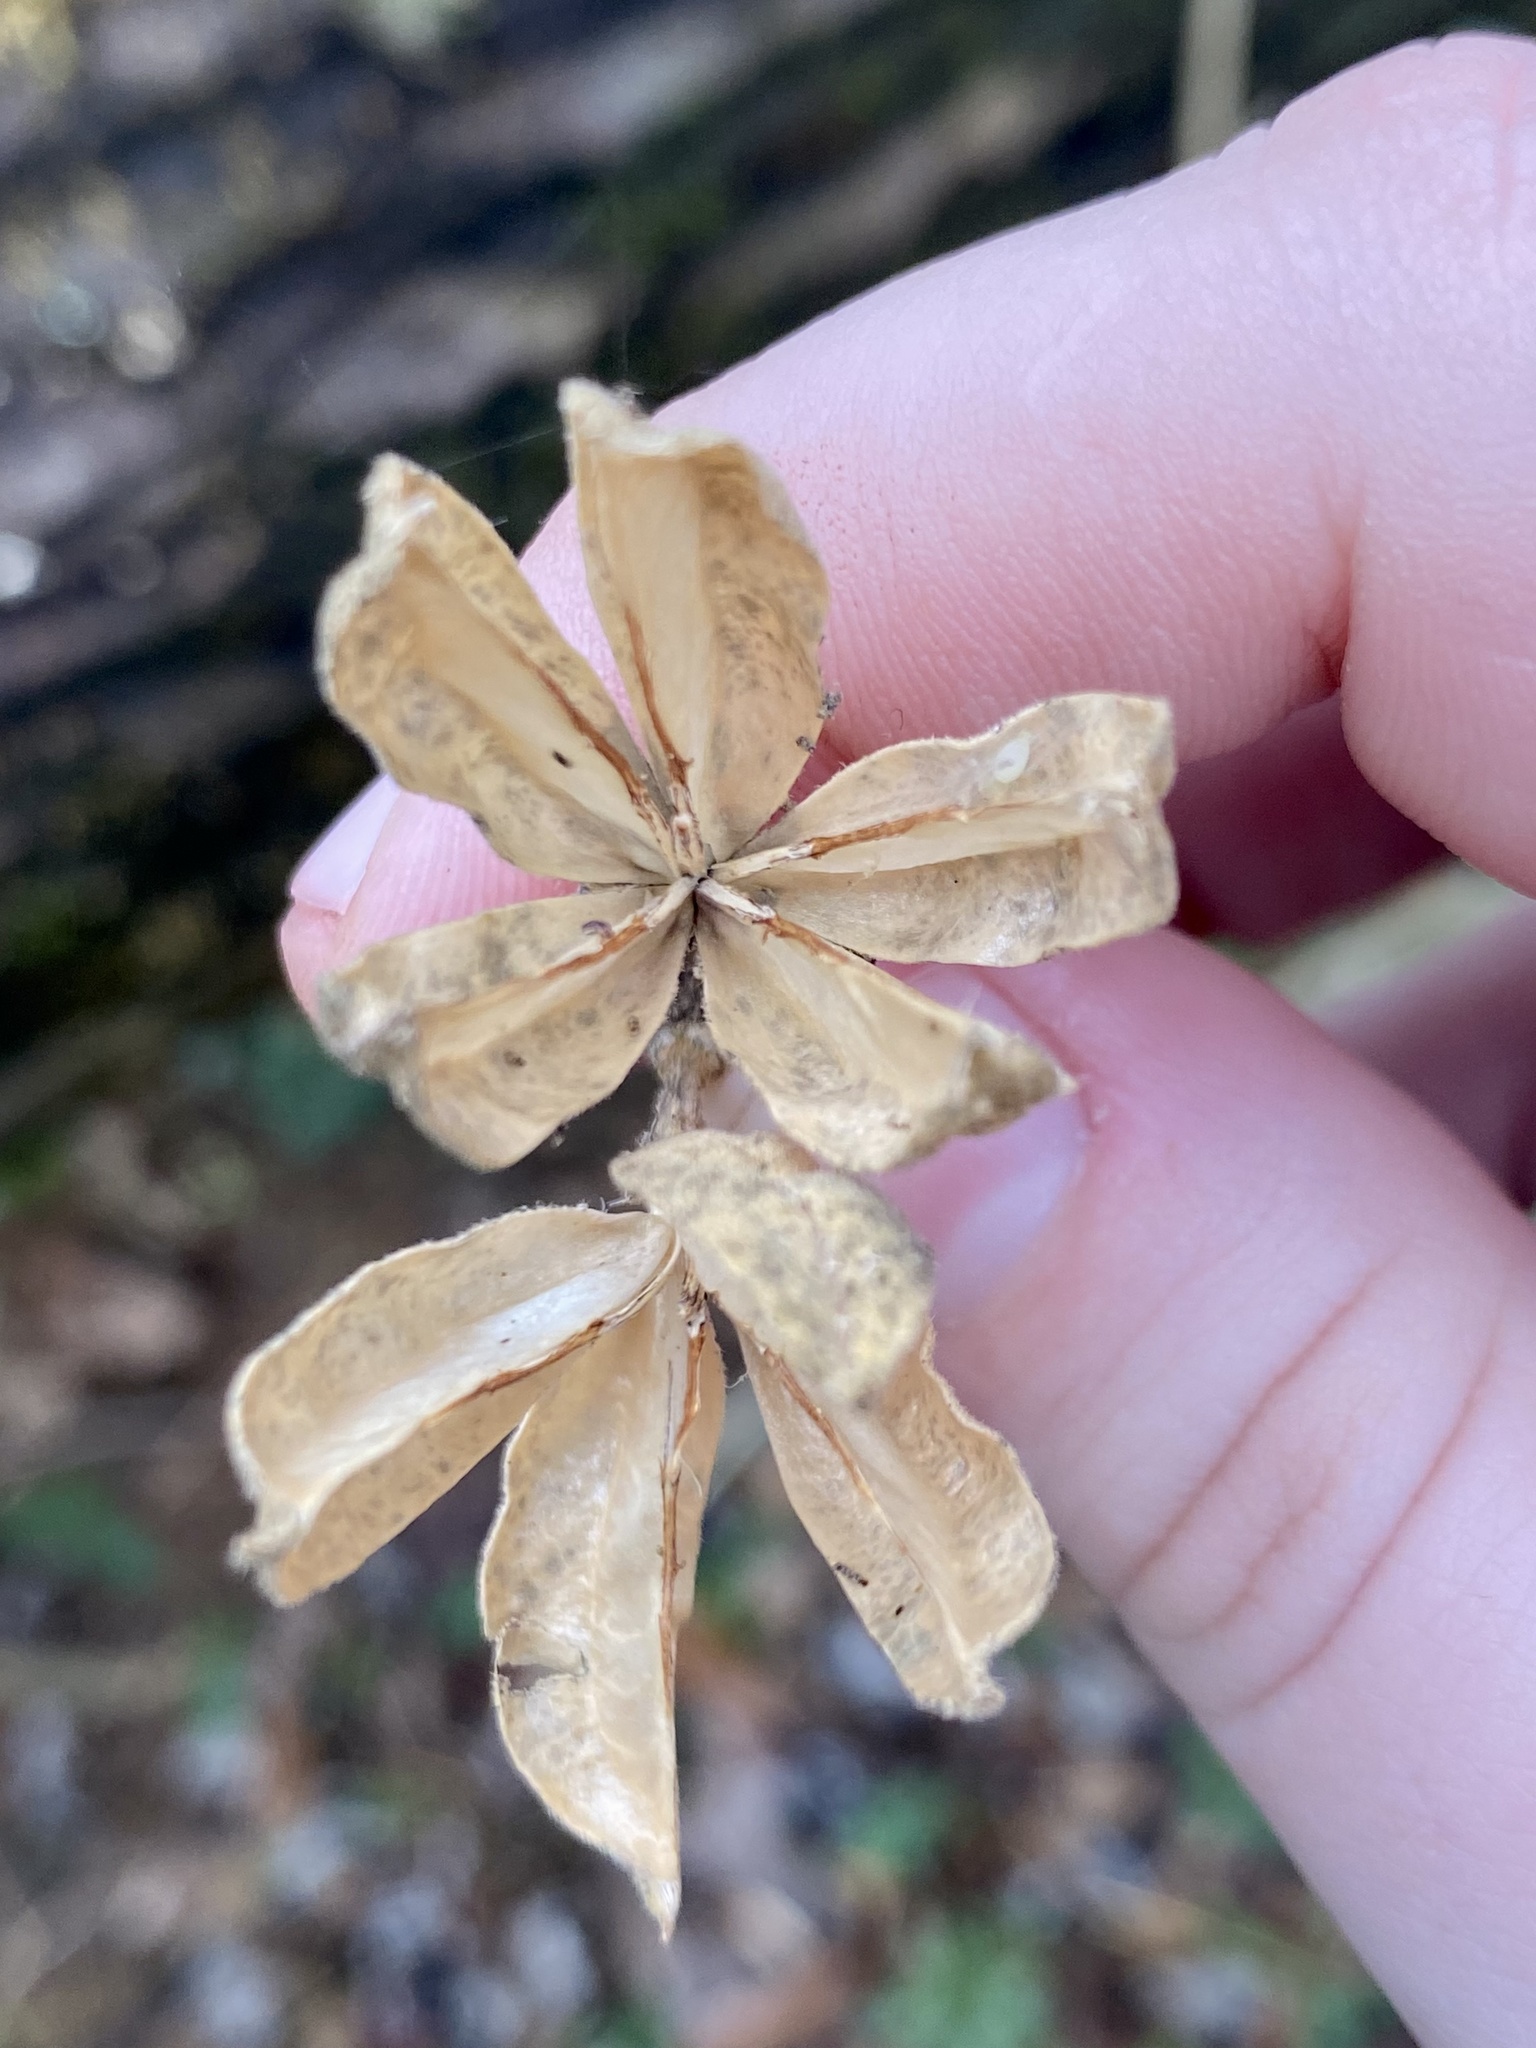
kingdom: Plantae
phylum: Tracheophyta
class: Magnoliopsida
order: Malvales
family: Malvaceae
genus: Hibiscus
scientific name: Hibiscus syriacus
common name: Syrian ketmia
